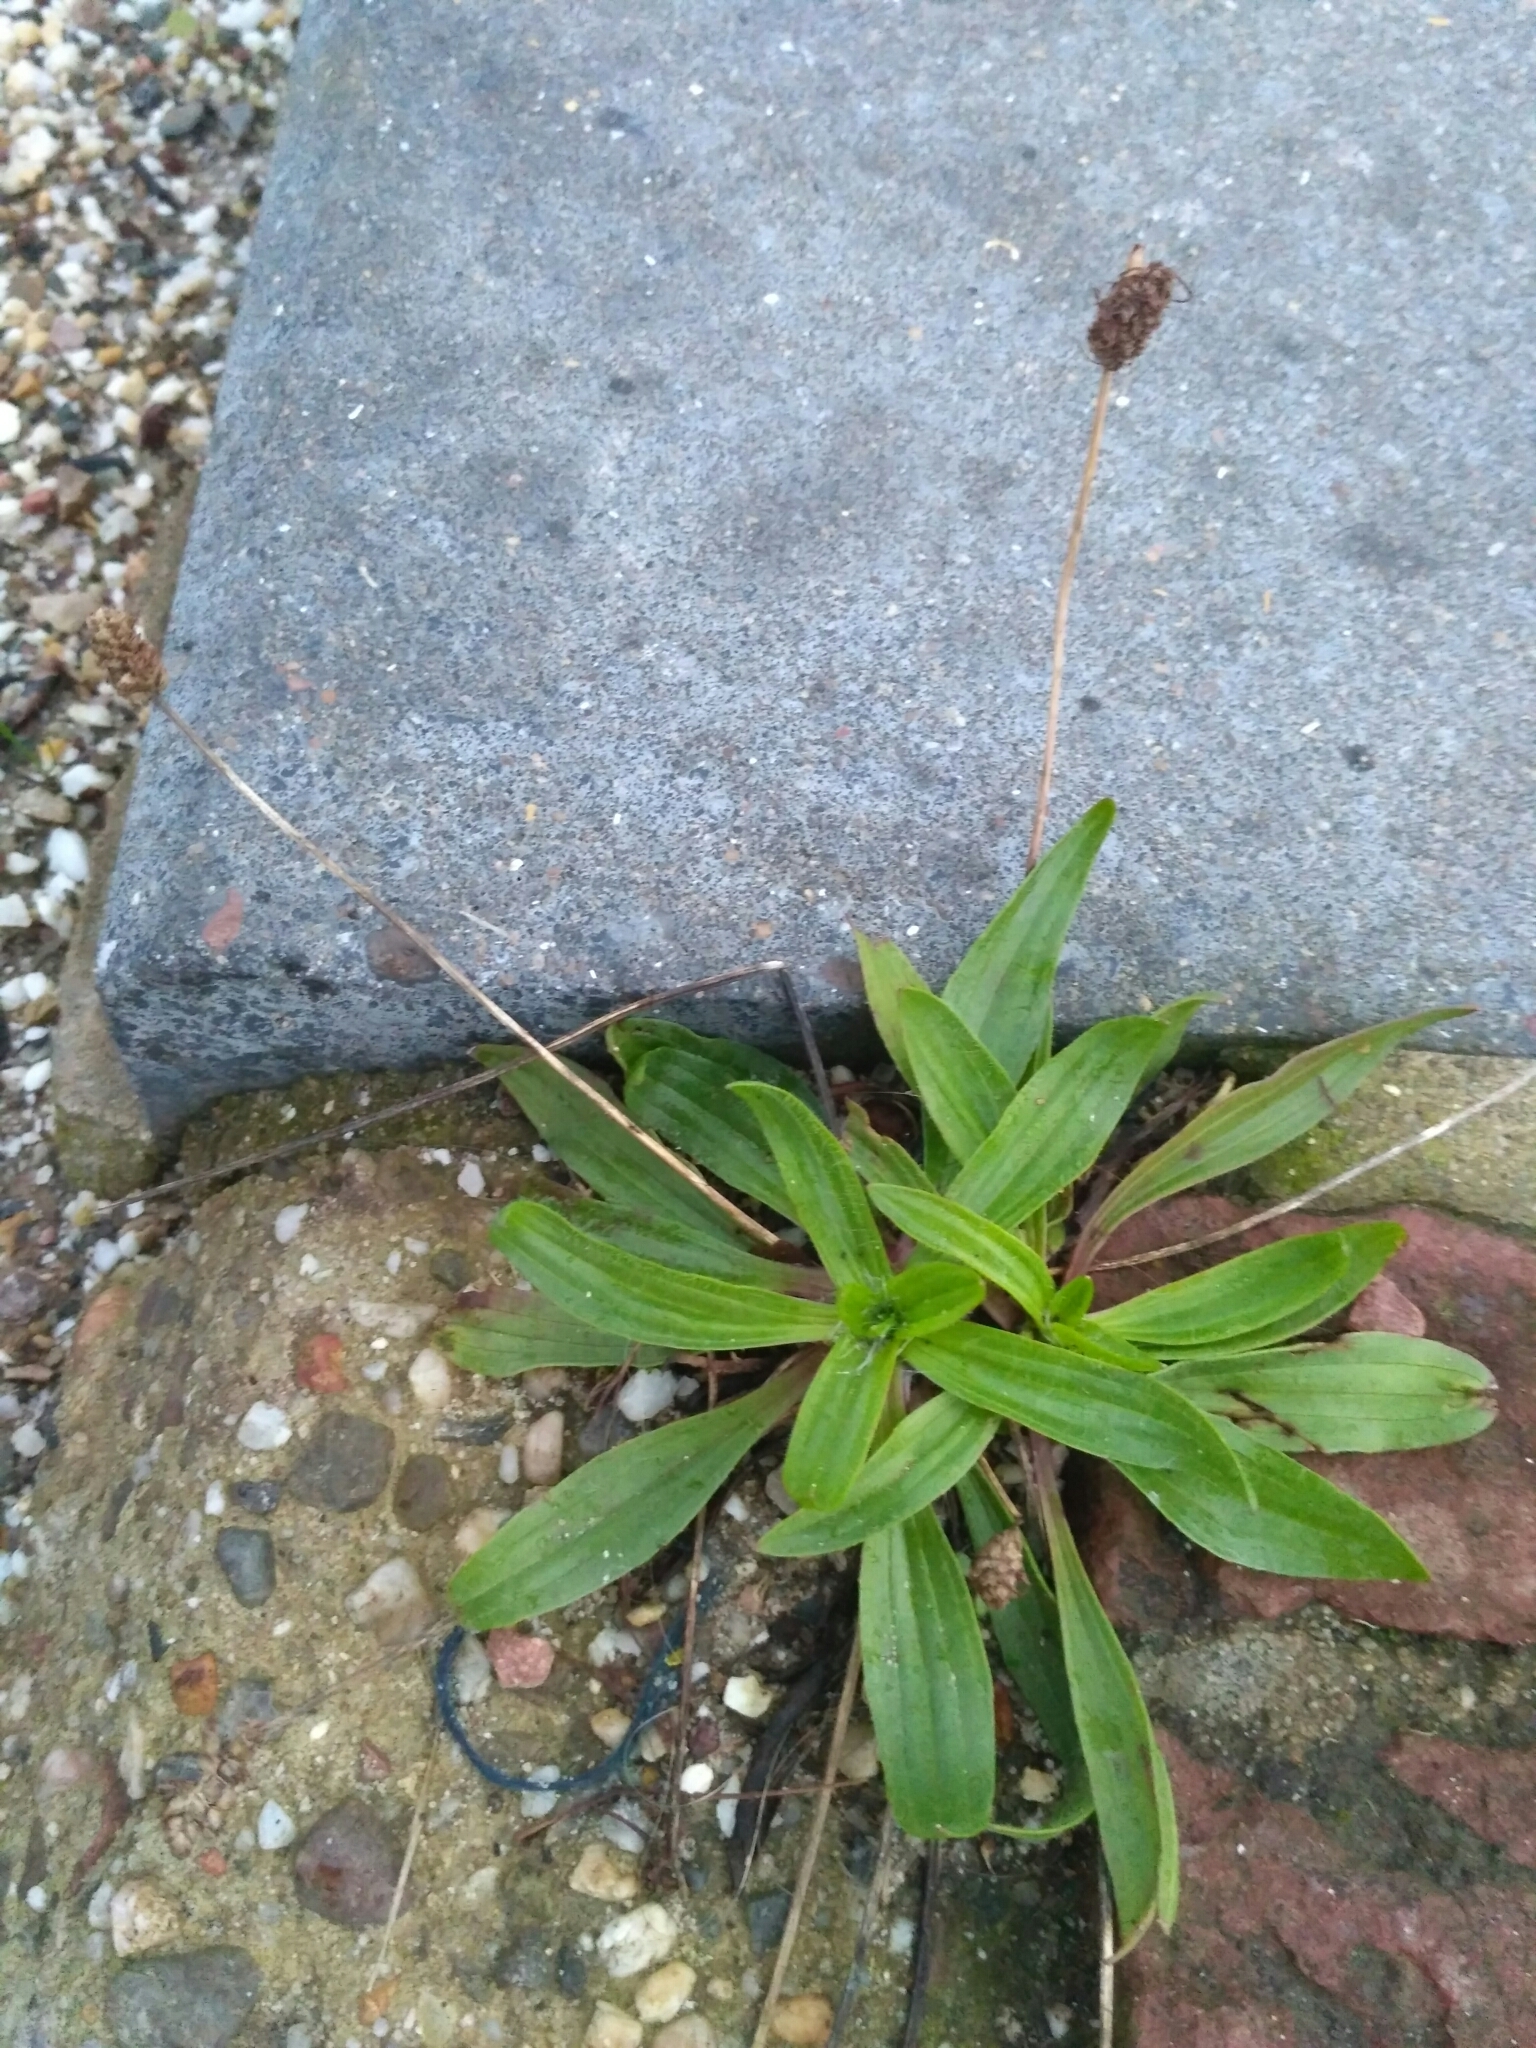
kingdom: Plantae
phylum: Tracheophyta
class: Magnoliopsida
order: Lamiales
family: Plantaginaceae
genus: Plantago
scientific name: Plantago lanceolata
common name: Ribwort plantain
